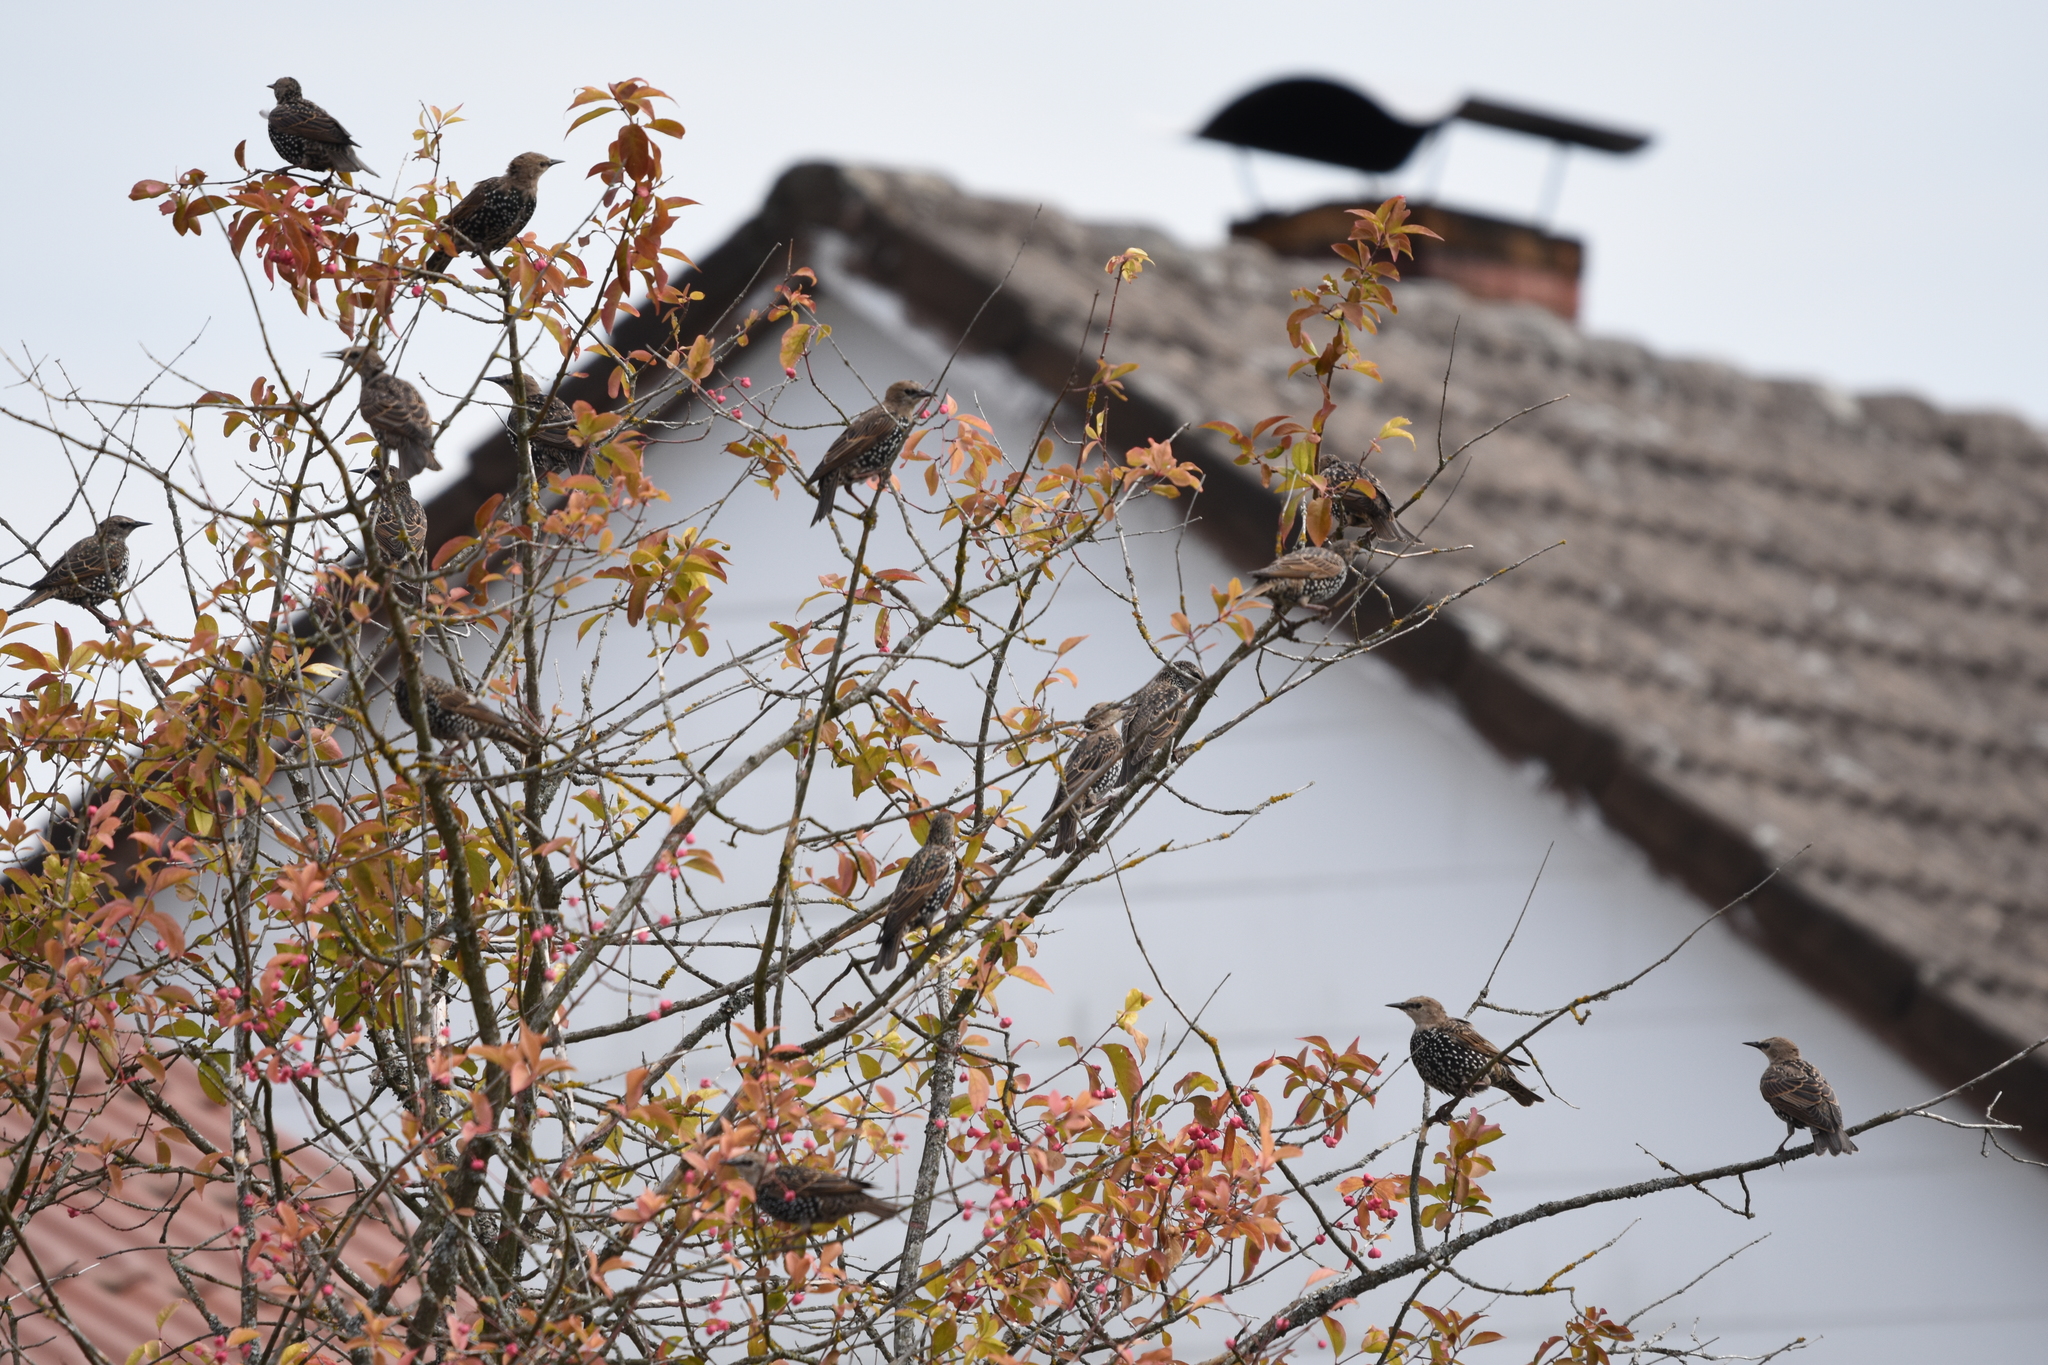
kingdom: Animalia
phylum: Chordata
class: Aves
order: Passeriformes
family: Sturnidae
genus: Sturnus
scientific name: Sturnus vulgaris
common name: Common starling
